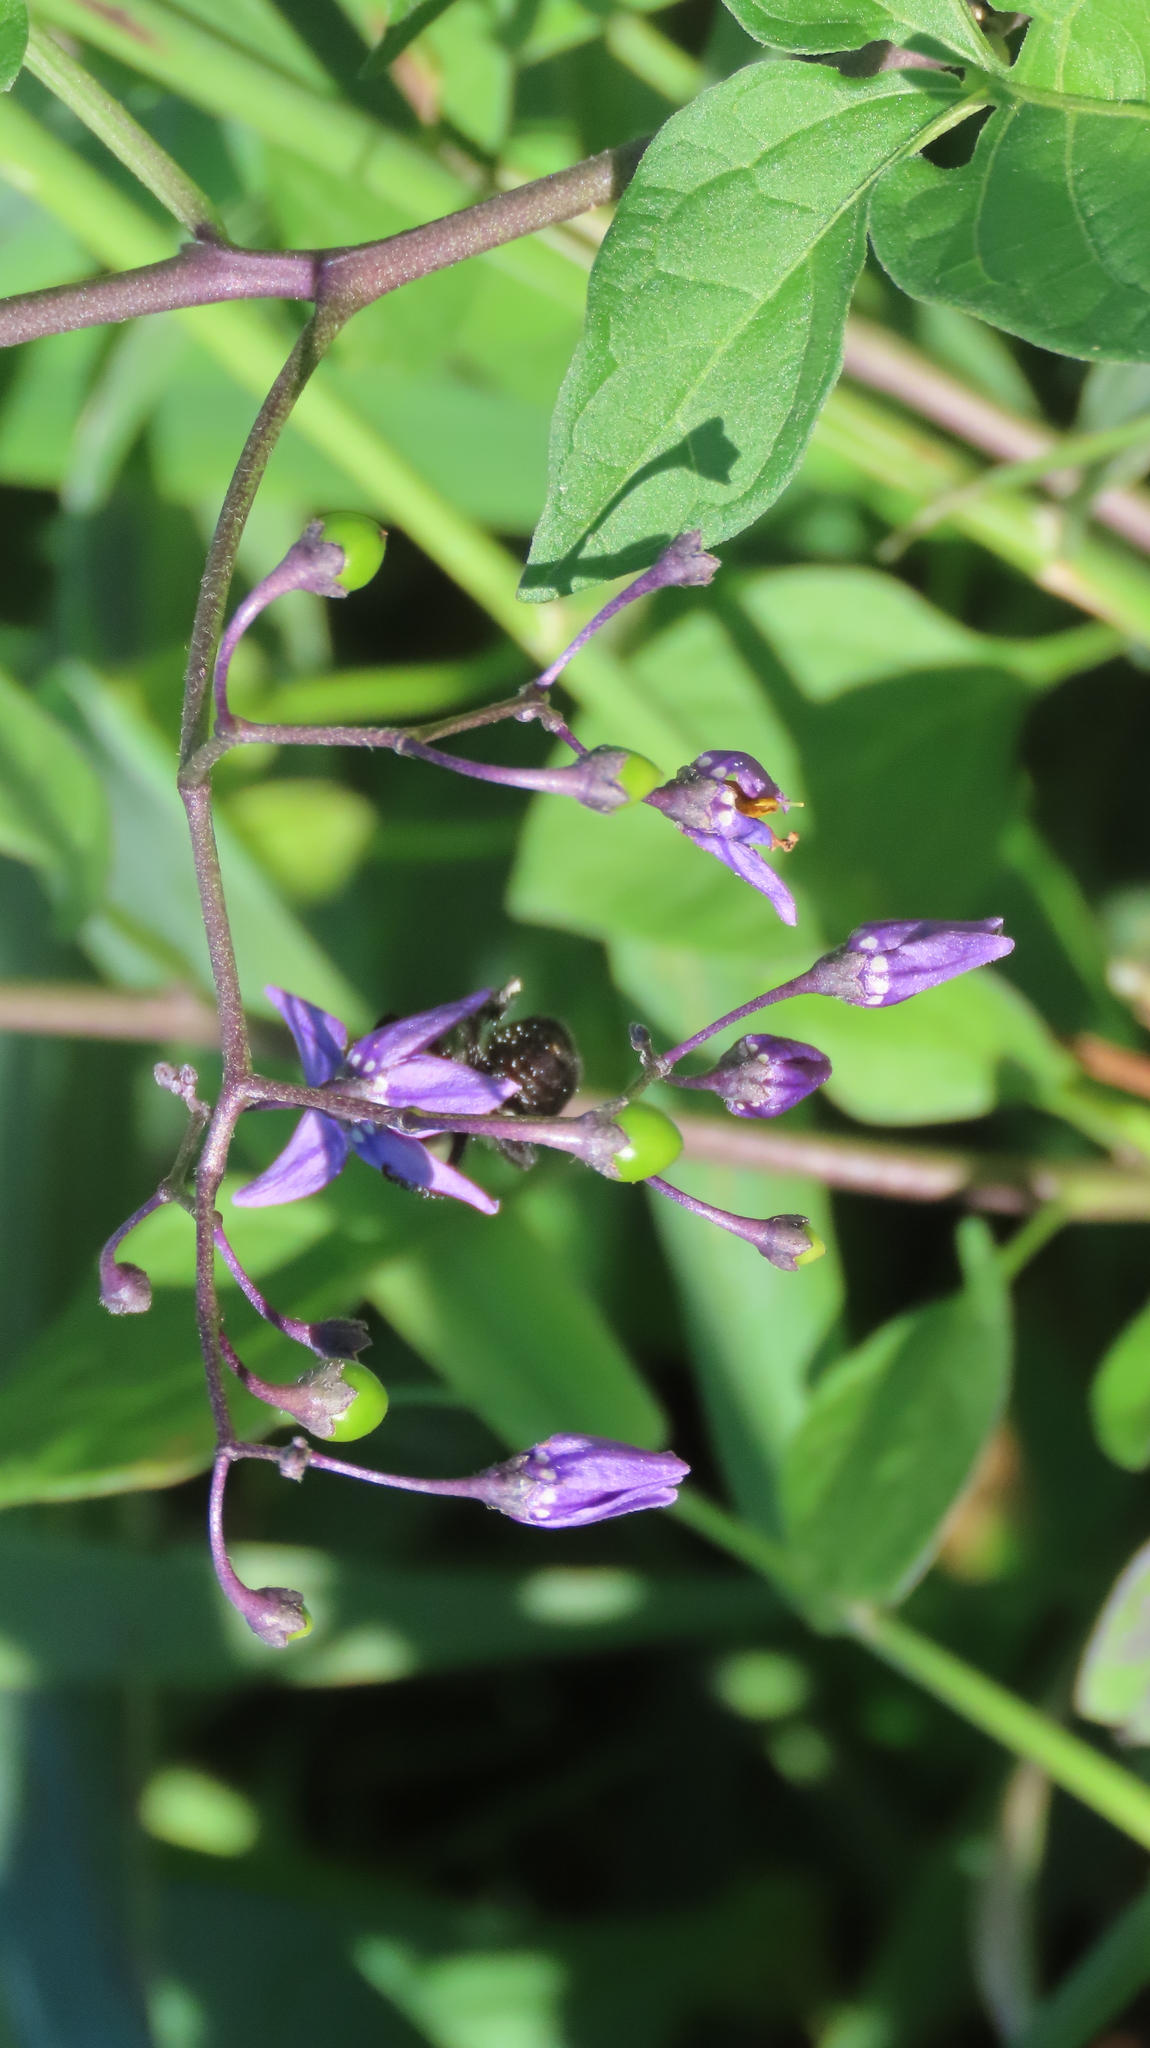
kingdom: Plantae
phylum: Tracheophyta
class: Magnoliopsida
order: Solanales
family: Solanaceae
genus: Solanum
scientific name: Solanum dulcamara
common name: Climbing nightshade
